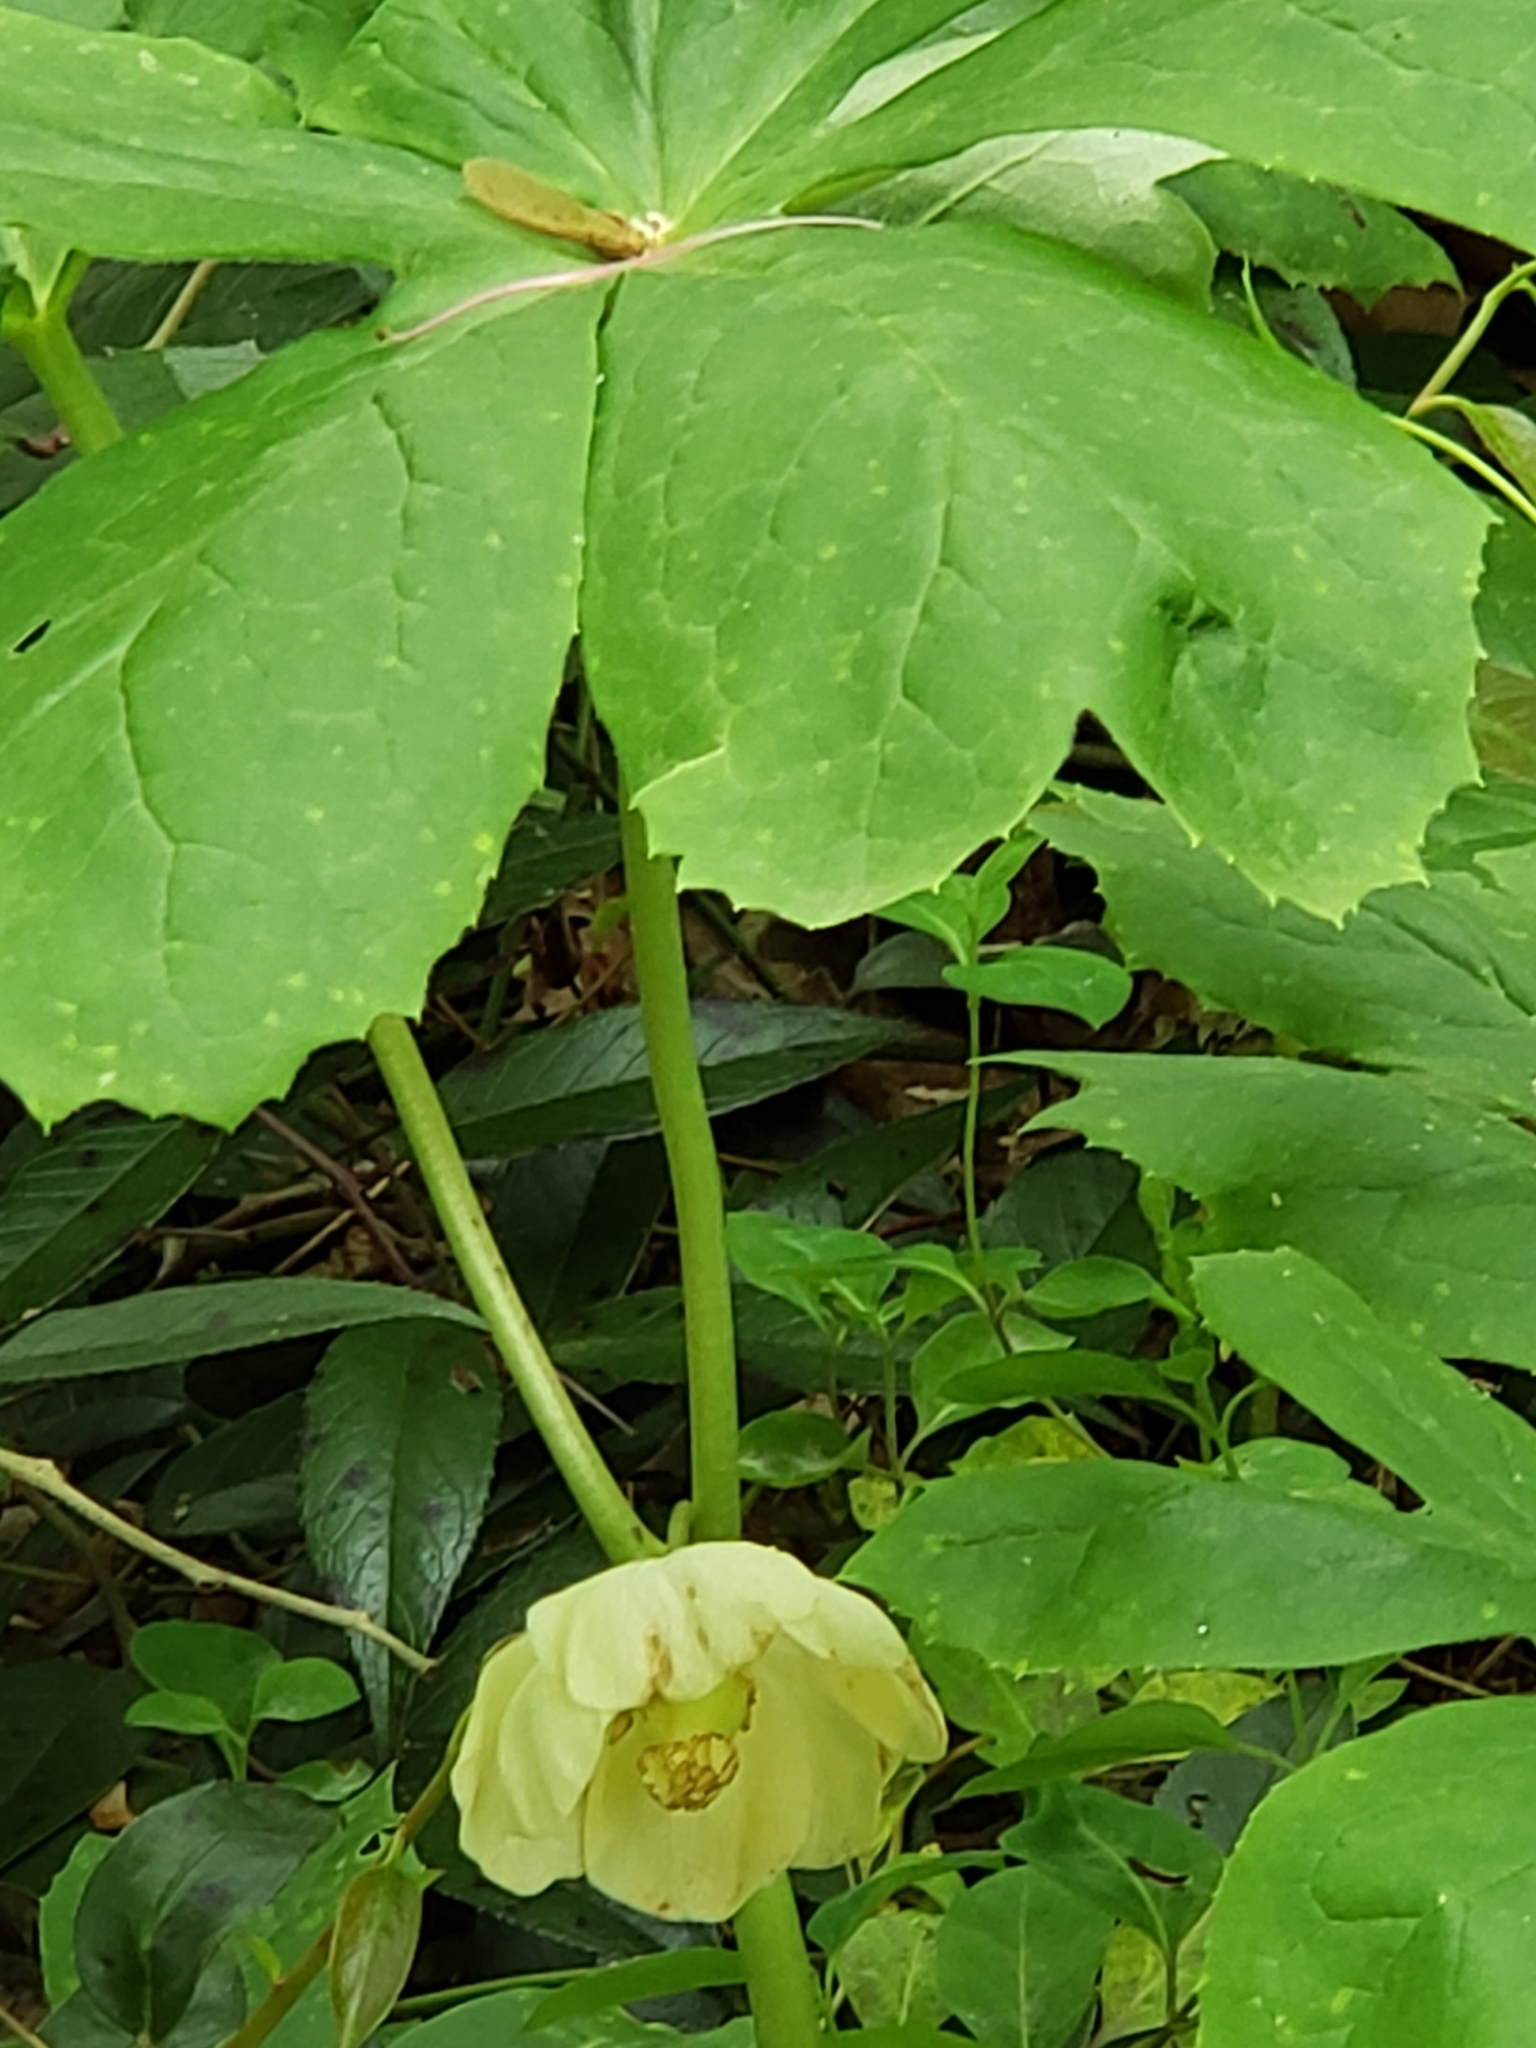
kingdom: Plantae
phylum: Tracheophyta
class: Magnoliopsida
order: Ranunculales
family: Berberidaceae
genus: Podophyllum
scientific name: Podophyllum peltatum
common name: Wild mandrake
